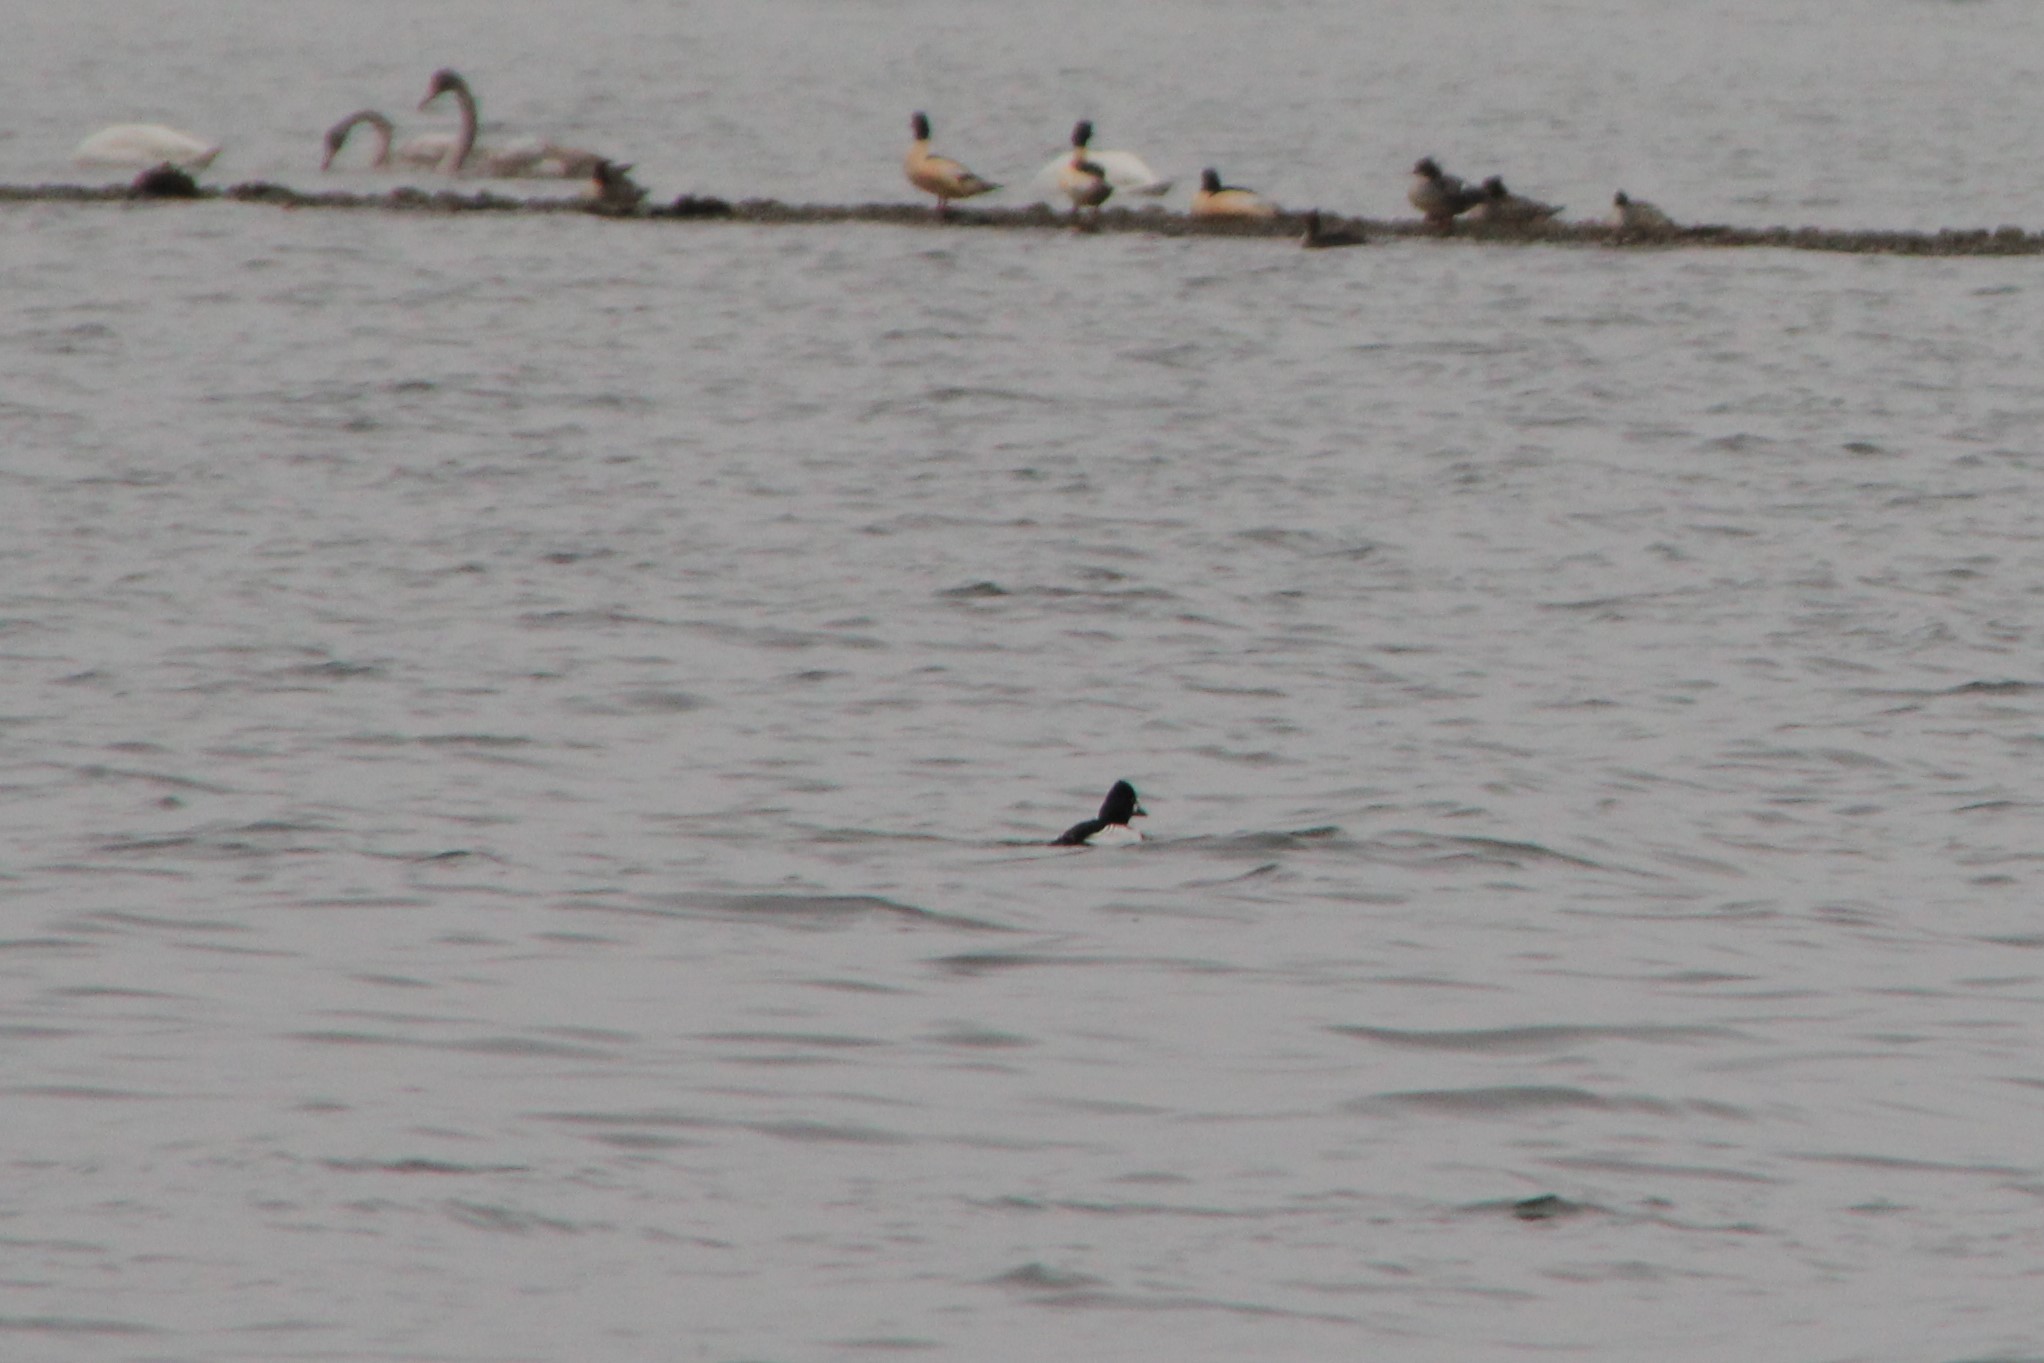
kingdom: Animalia
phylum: Chordata
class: Aves
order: Anseriformes
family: Anatidae
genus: Bucephala
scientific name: Bucephala clangula
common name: Common goldeneye
